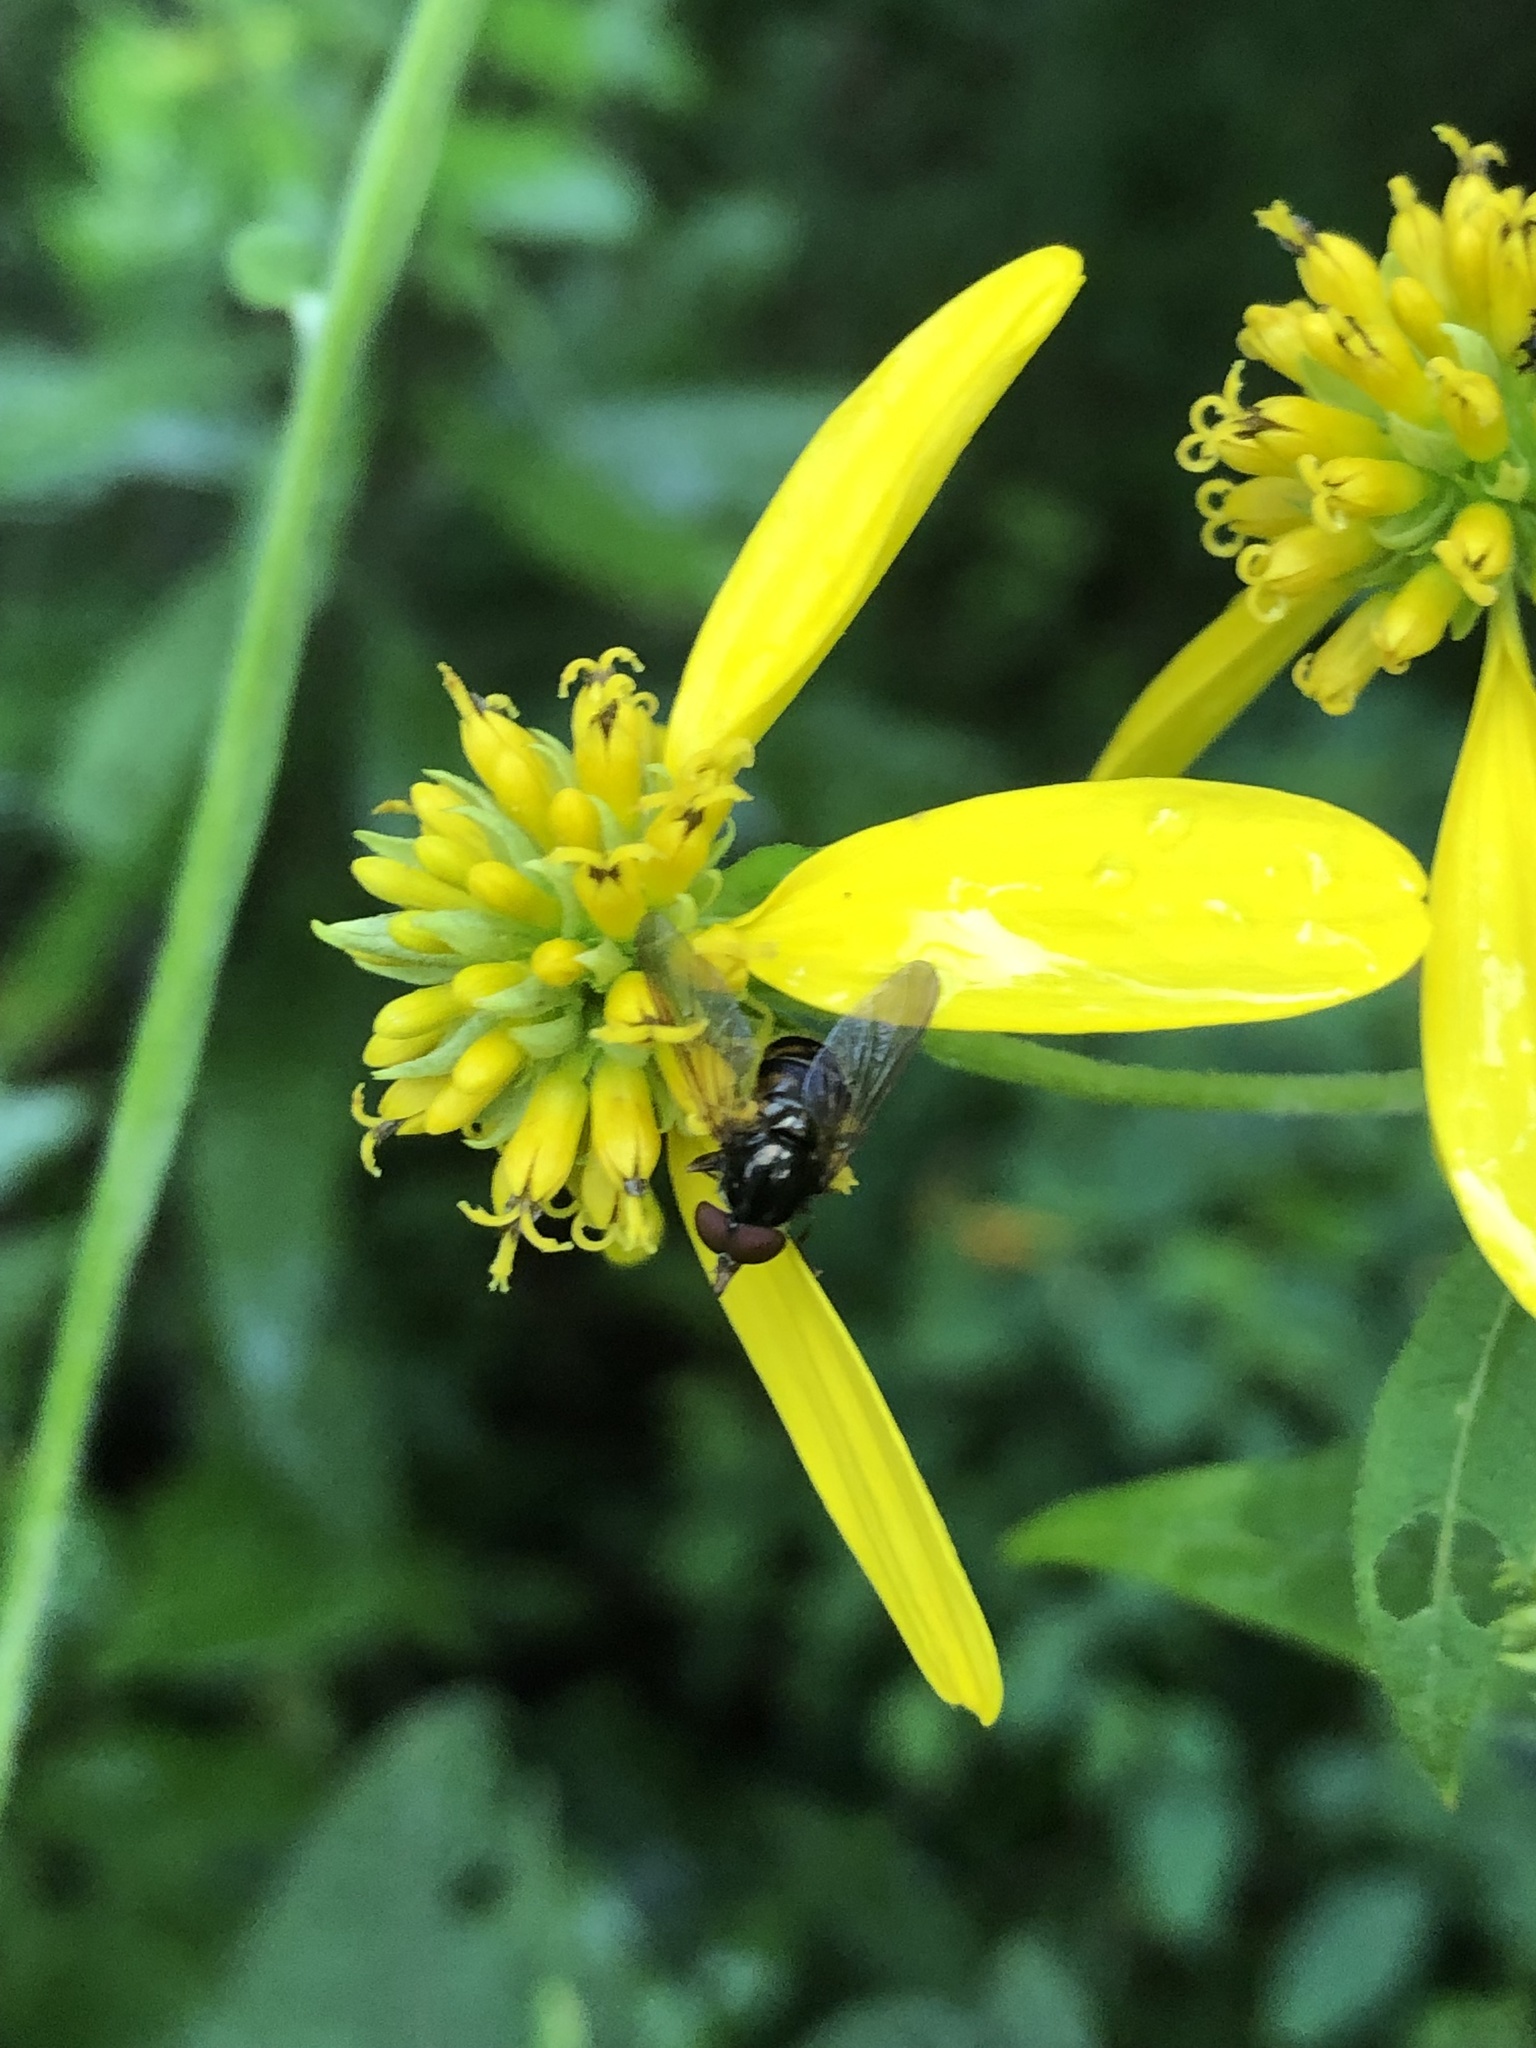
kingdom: Animalia
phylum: Arthropoda
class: Insecta
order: Diptera
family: Syrphidae
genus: Rhingia
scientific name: Rhingia nasica
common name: American snout fly
